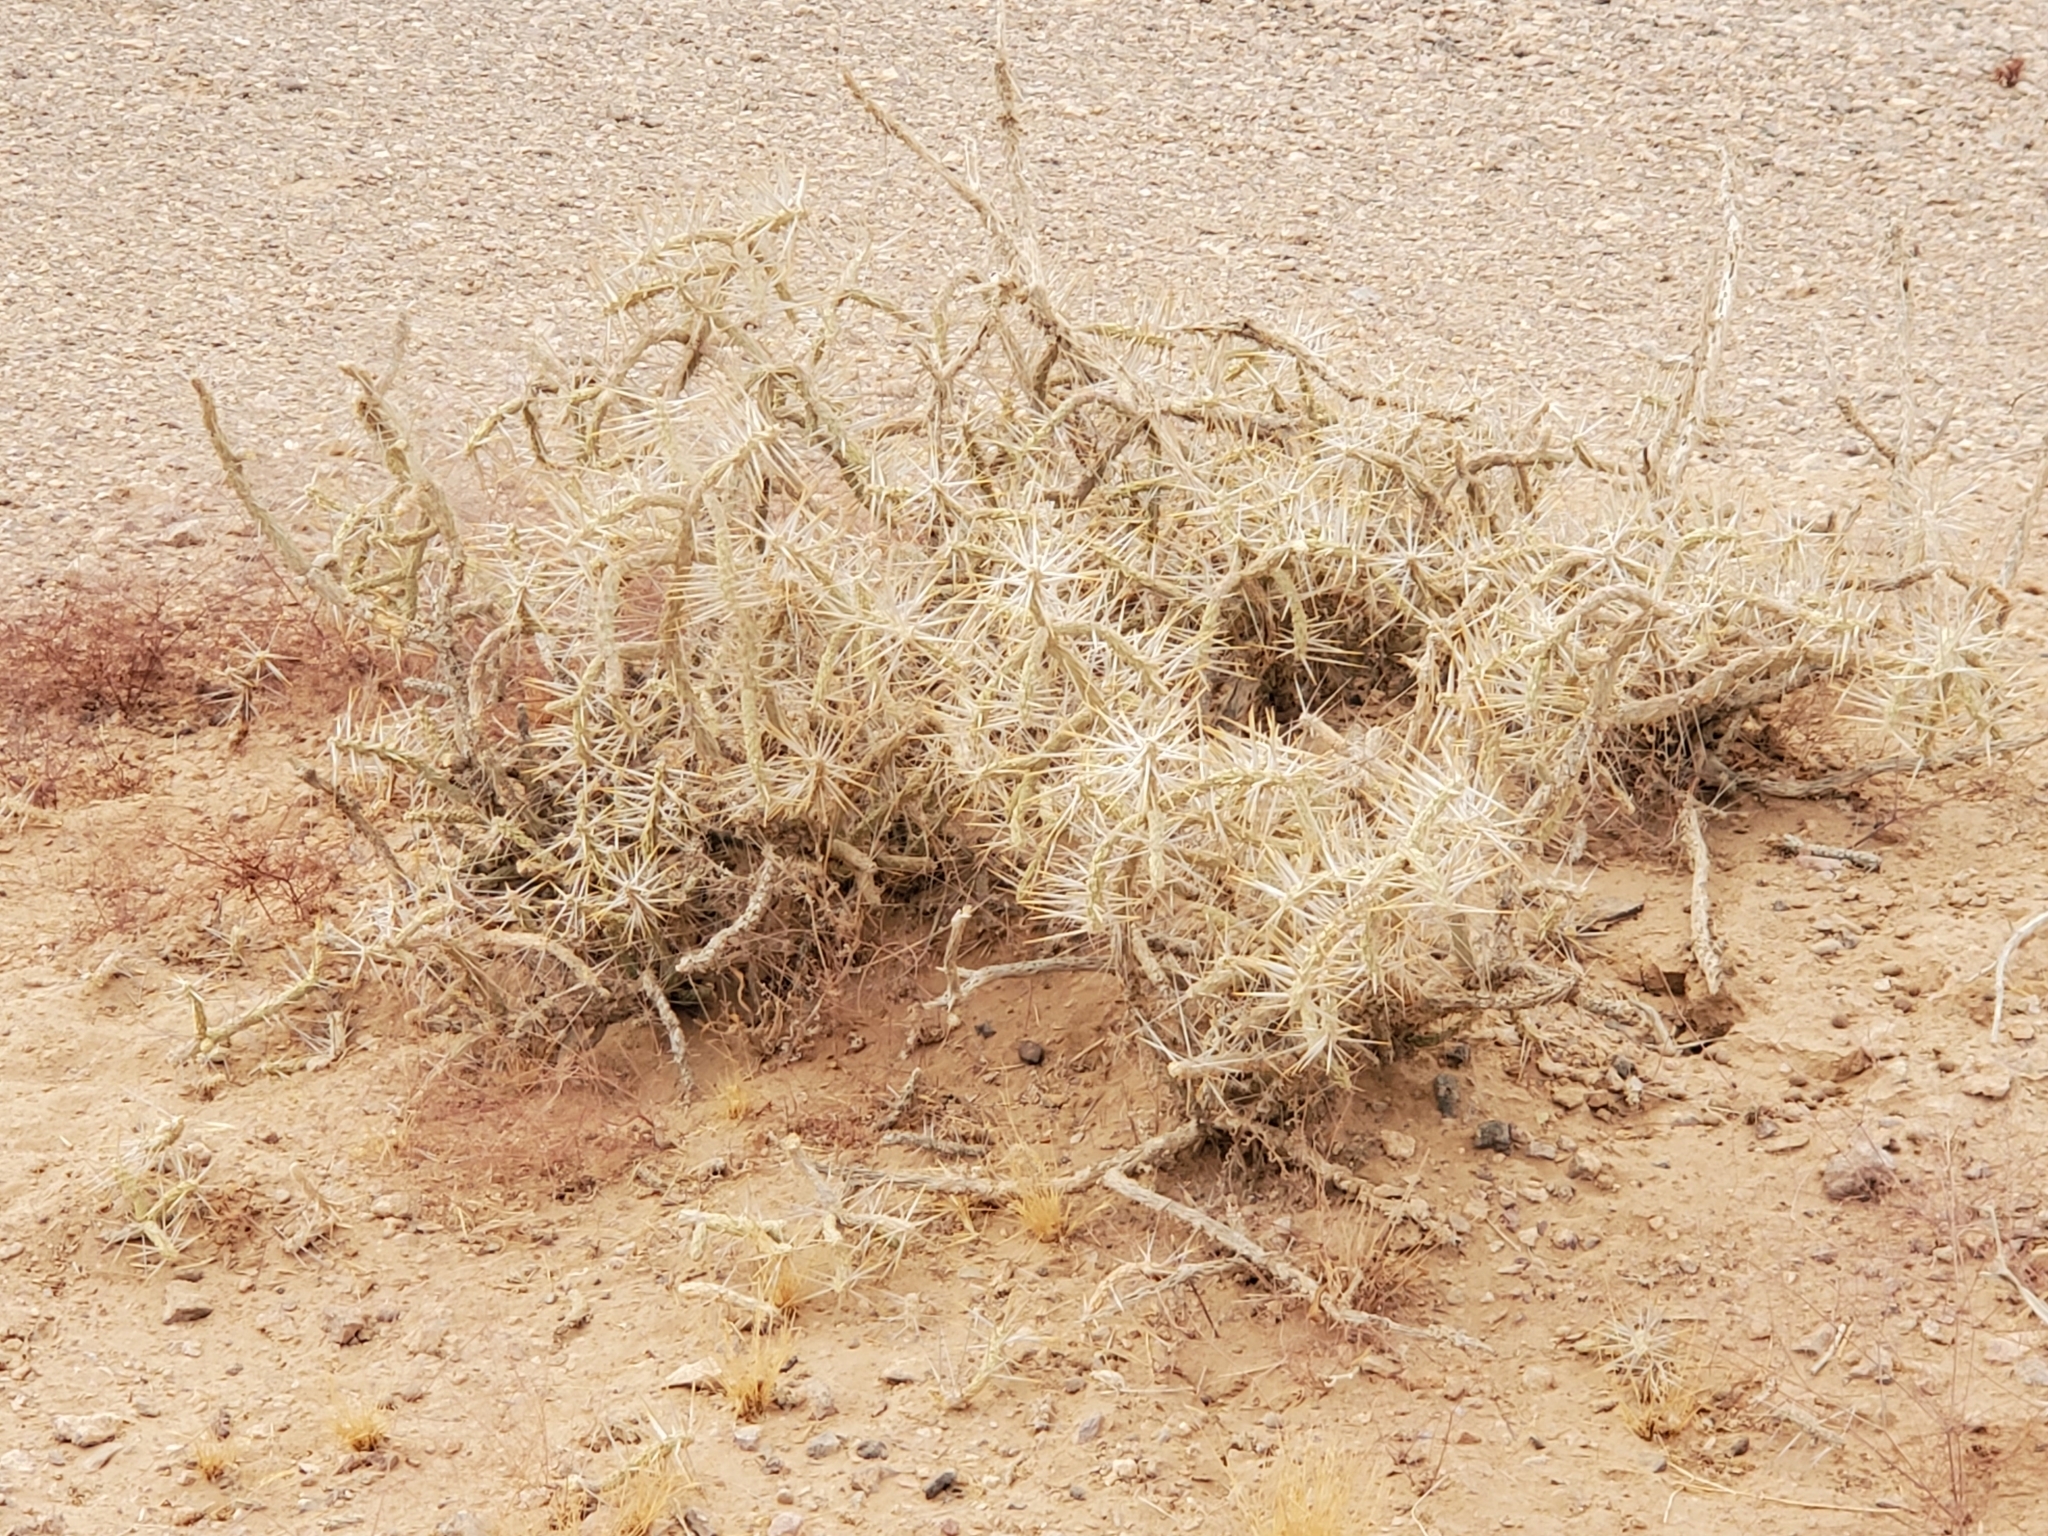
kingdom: Plantae
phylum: Tracheophyta
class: Magnoliopsida
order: Caryophyllales
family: Cactaceae
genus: Cylindropuntia
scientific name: Cylindropuntia ramosissima
